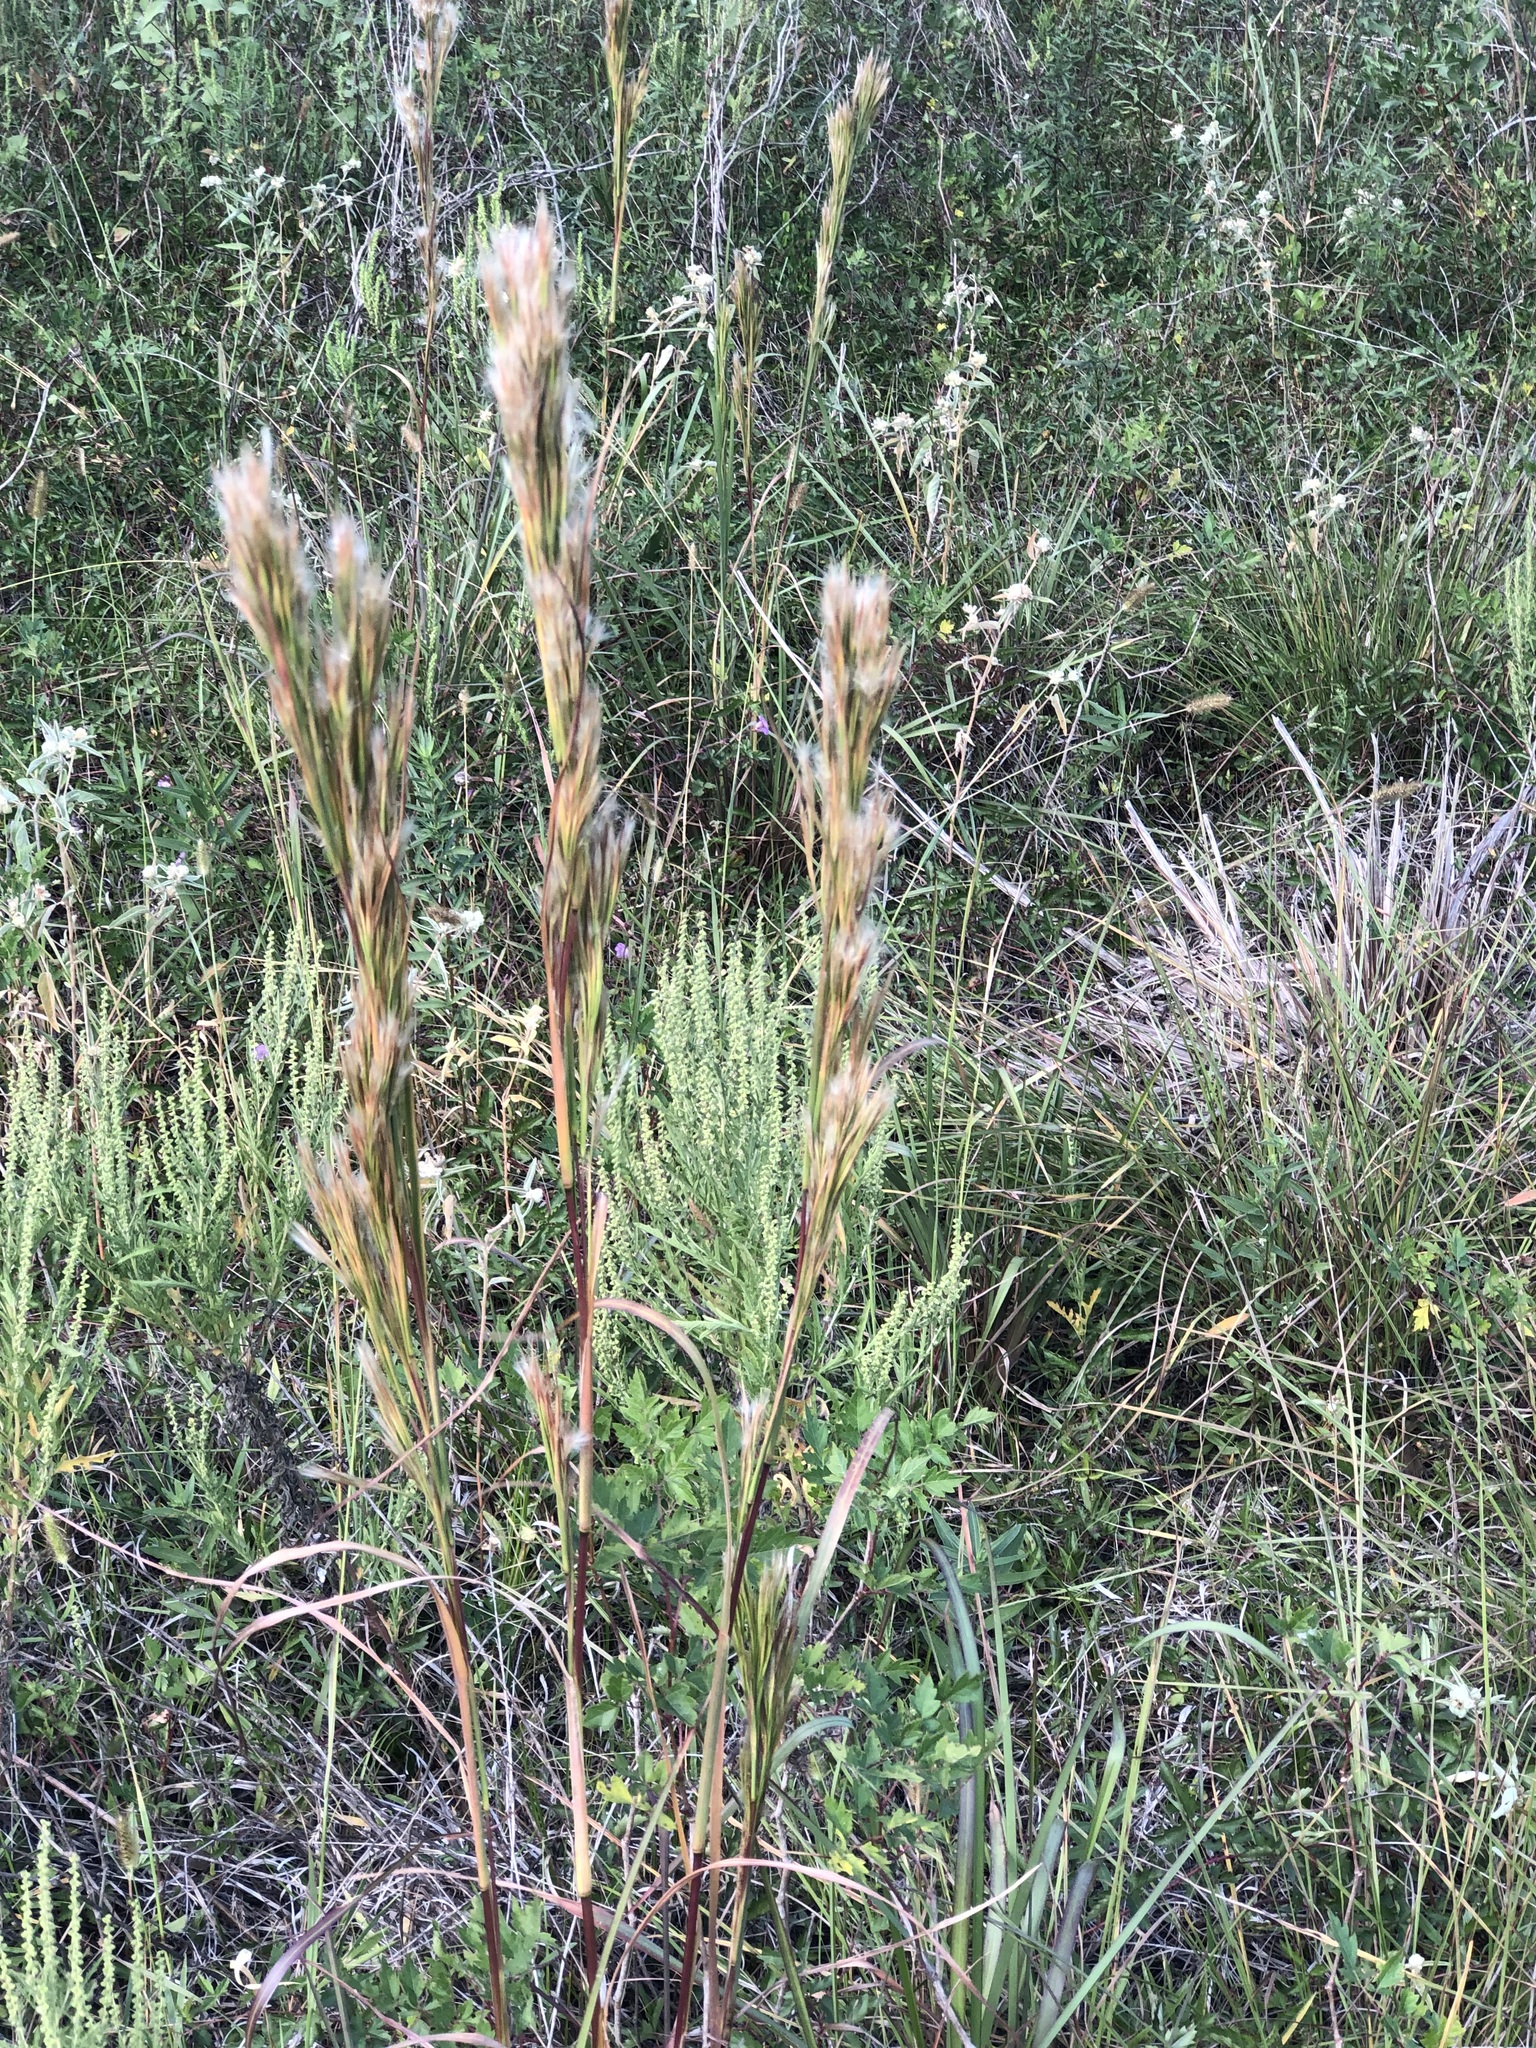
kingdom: Plantae
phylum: Tracheophyta
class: Liliopsida
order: Poales
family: Poaceae
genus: Andropogon
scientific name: Andropogon tenuispatheus
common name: Bushy bluestem
